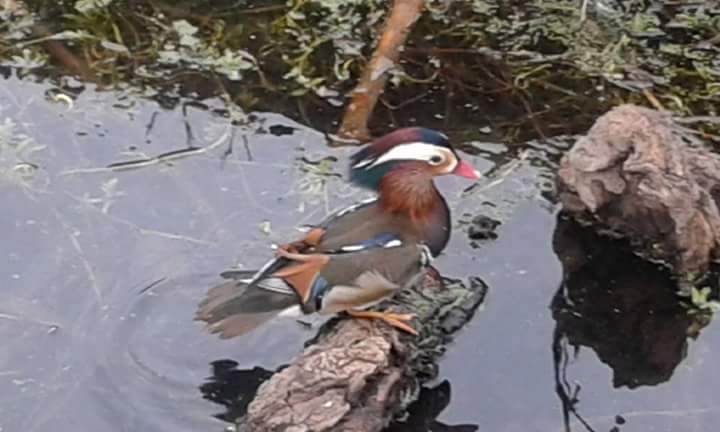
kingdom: Animalia
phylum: Chordata
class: Aves
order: Anseriformes
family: Anatidae
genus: Aix
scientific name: Aix galericulata
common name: Mandarin duck
